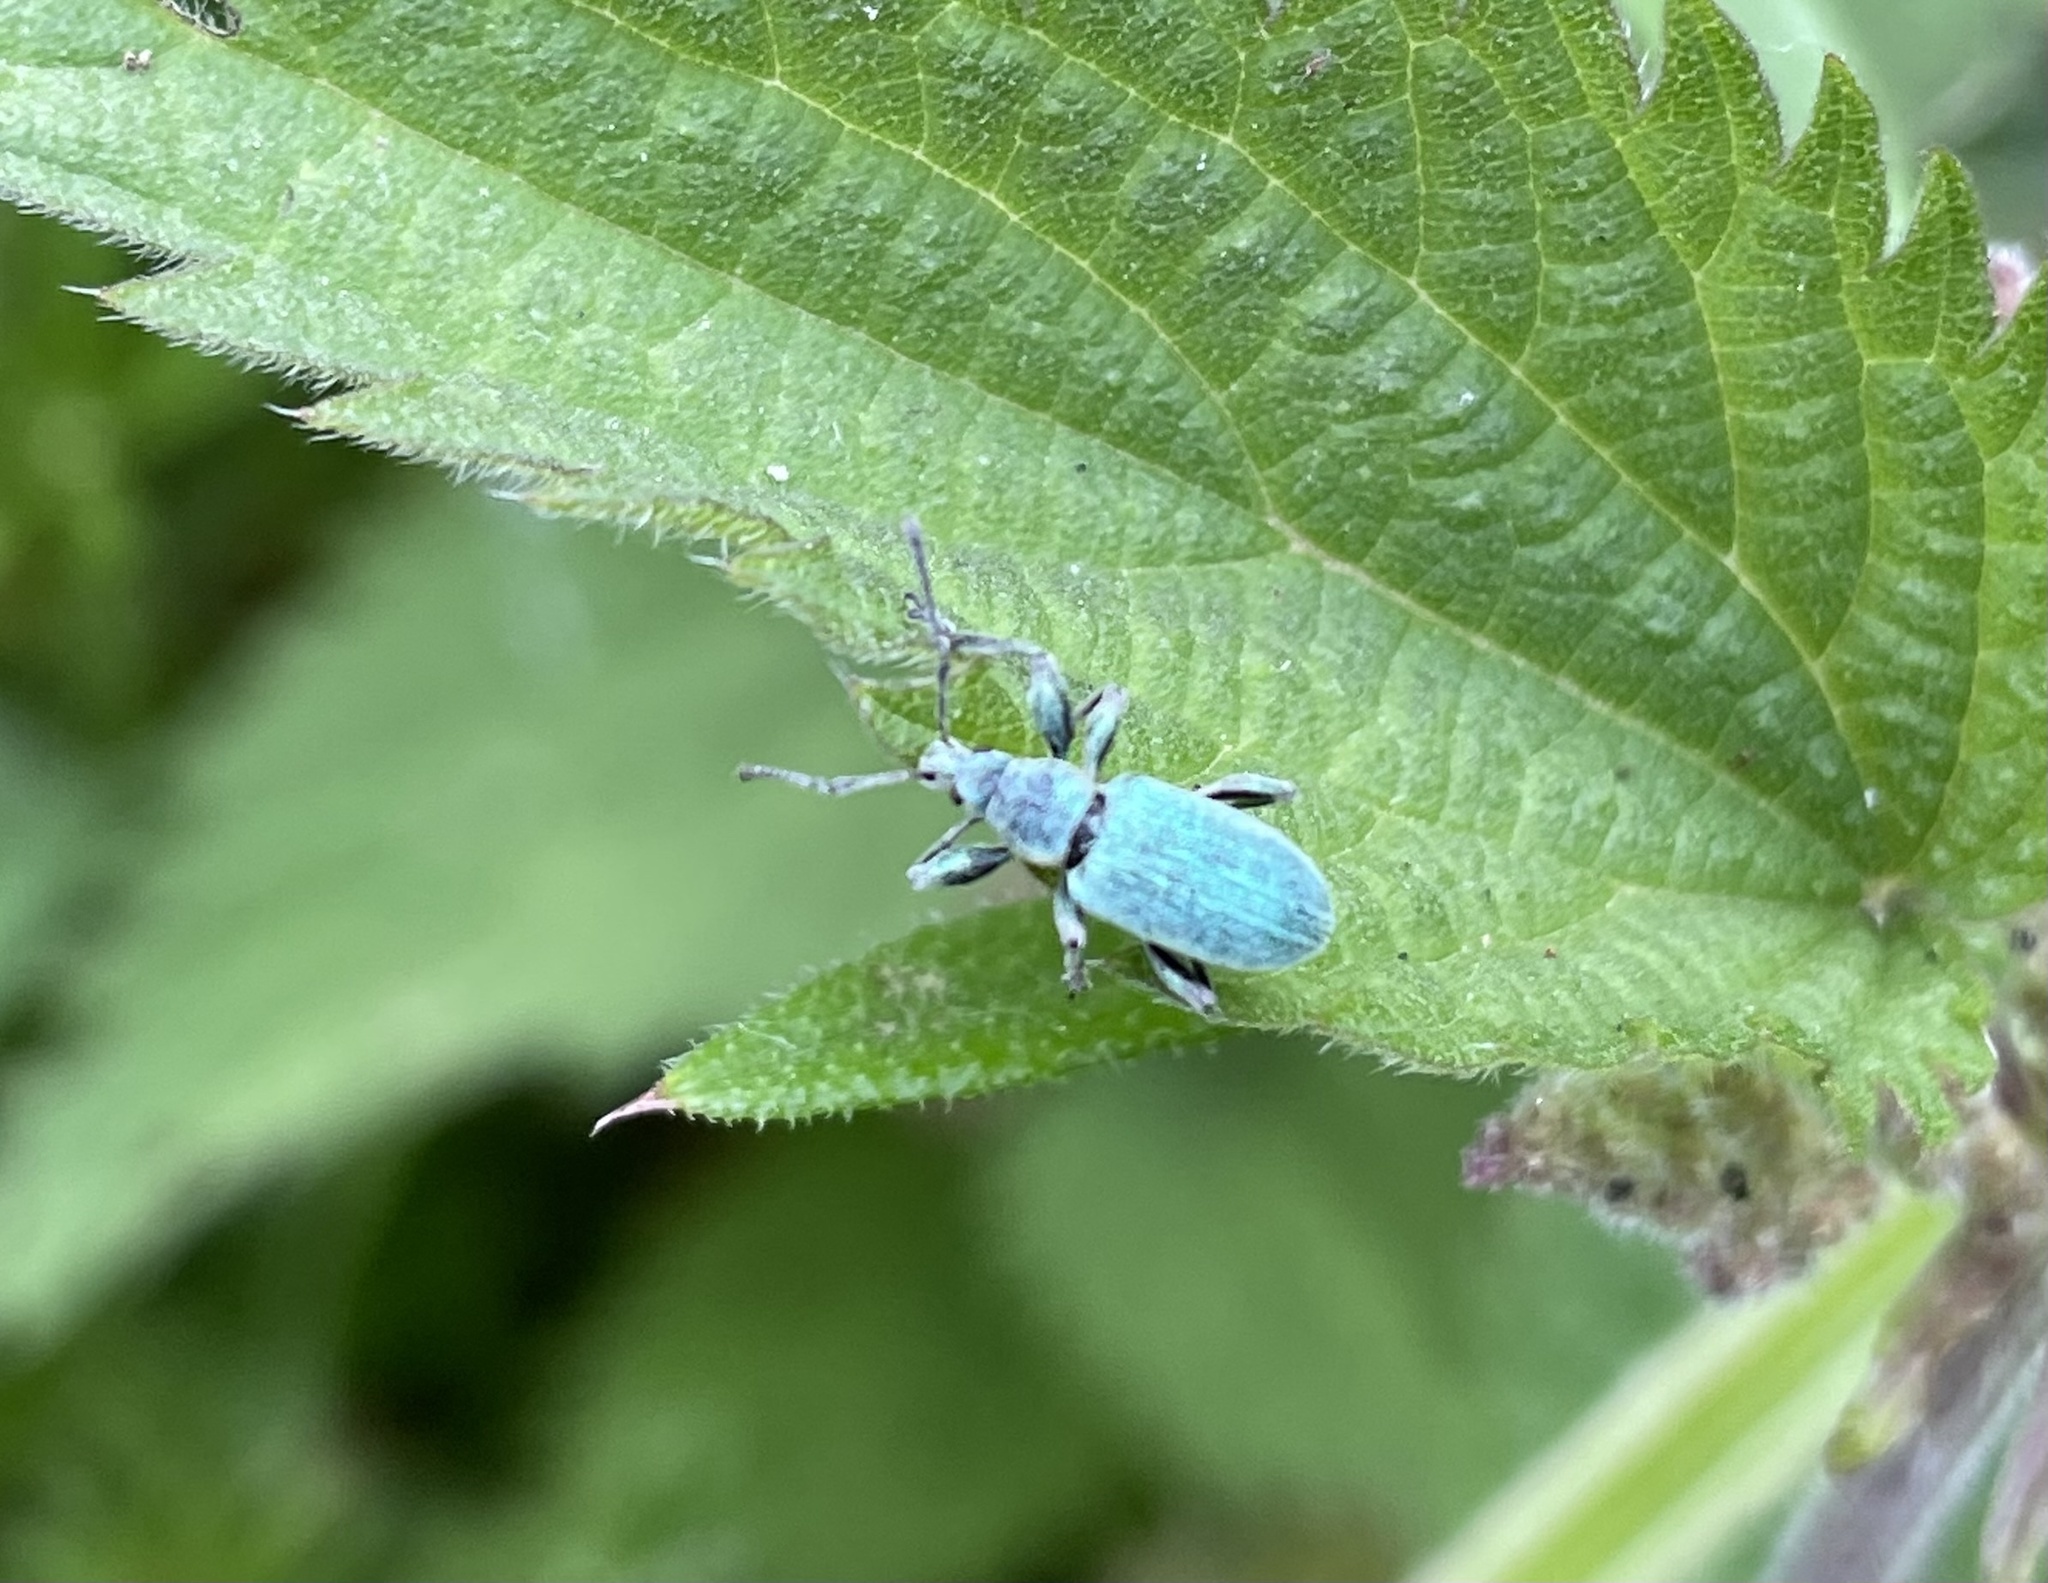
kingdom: Animalia
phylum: Arthropoda
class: Insecta
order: Coleoptera
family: Curculionidae
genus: Phyllobius
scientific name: Phyllobius pomaceus
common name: Green nettle weevil
